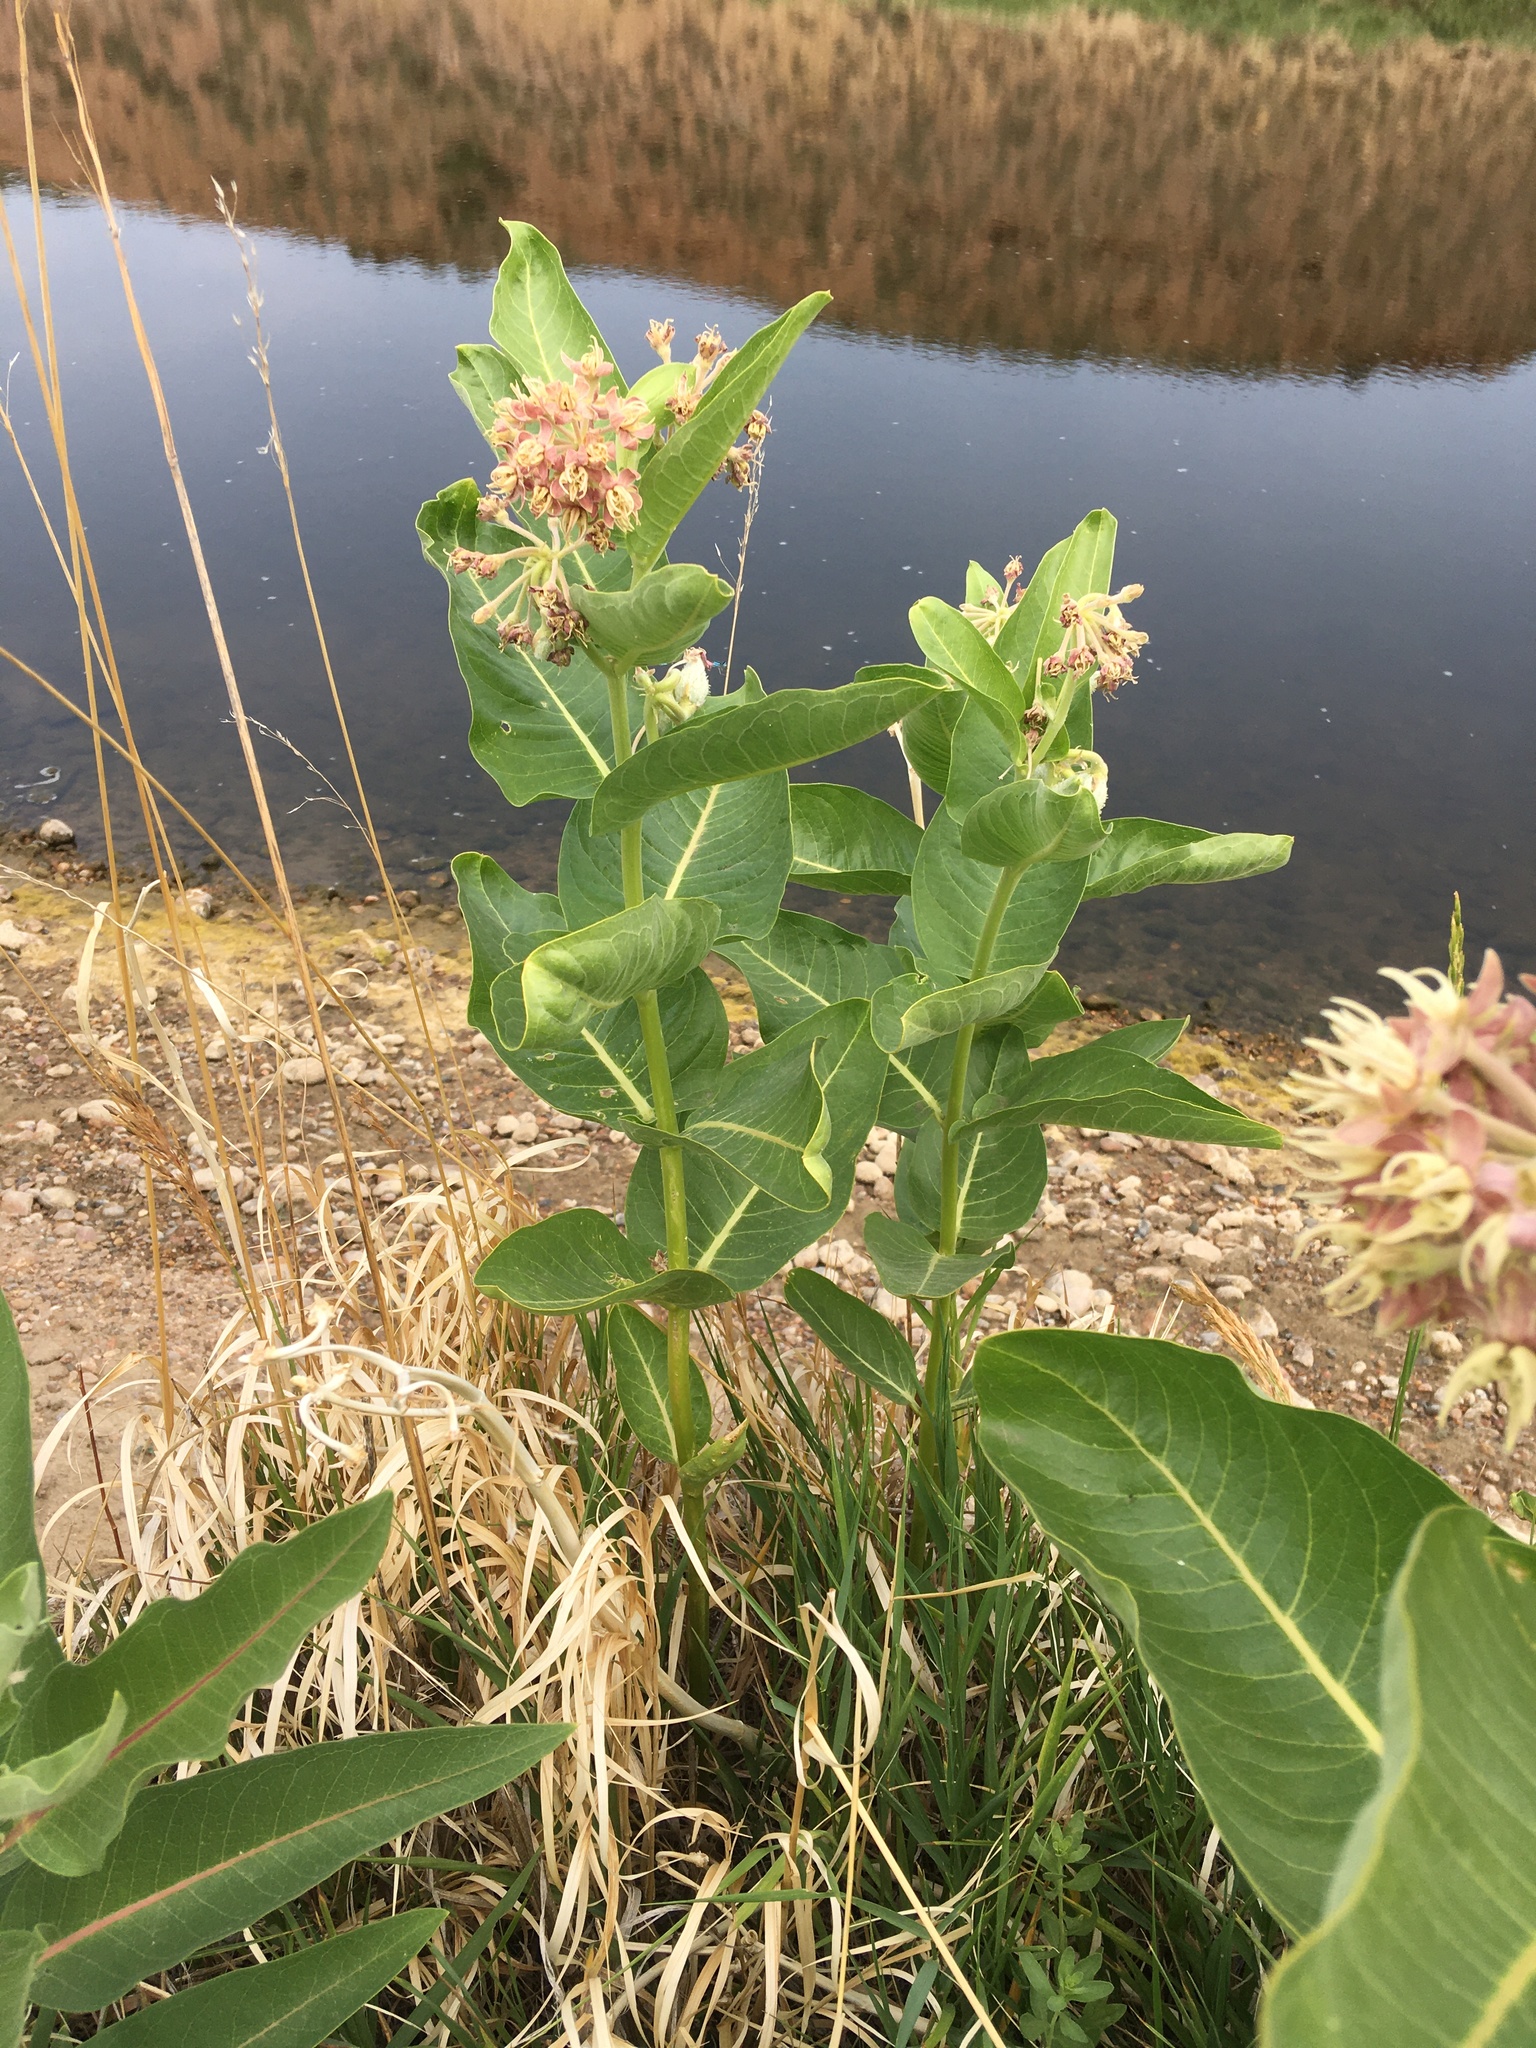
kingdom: Plantae
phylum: Tracheophyta
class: Magnoliopsida
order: Gentianales
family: Apocynaceae
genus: Asclepias
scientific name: Asclepias speciosa
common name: Showy milkweed
